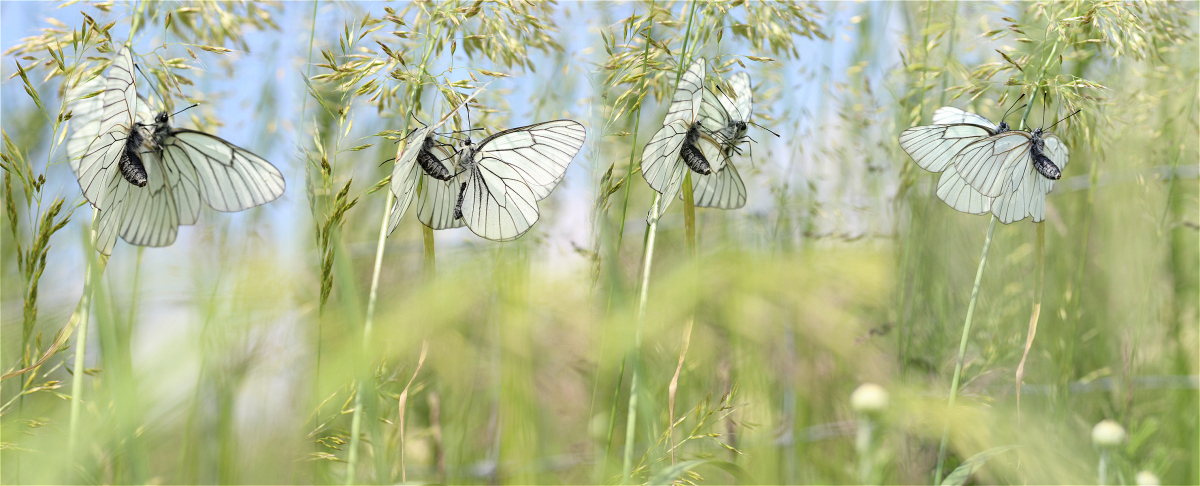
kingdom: Animalia
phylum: Arthropoda
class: Insecta
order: Lepidoptera
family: Pieridae
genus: Aporia
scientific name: Aporia crataegi
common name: Black-veined white
